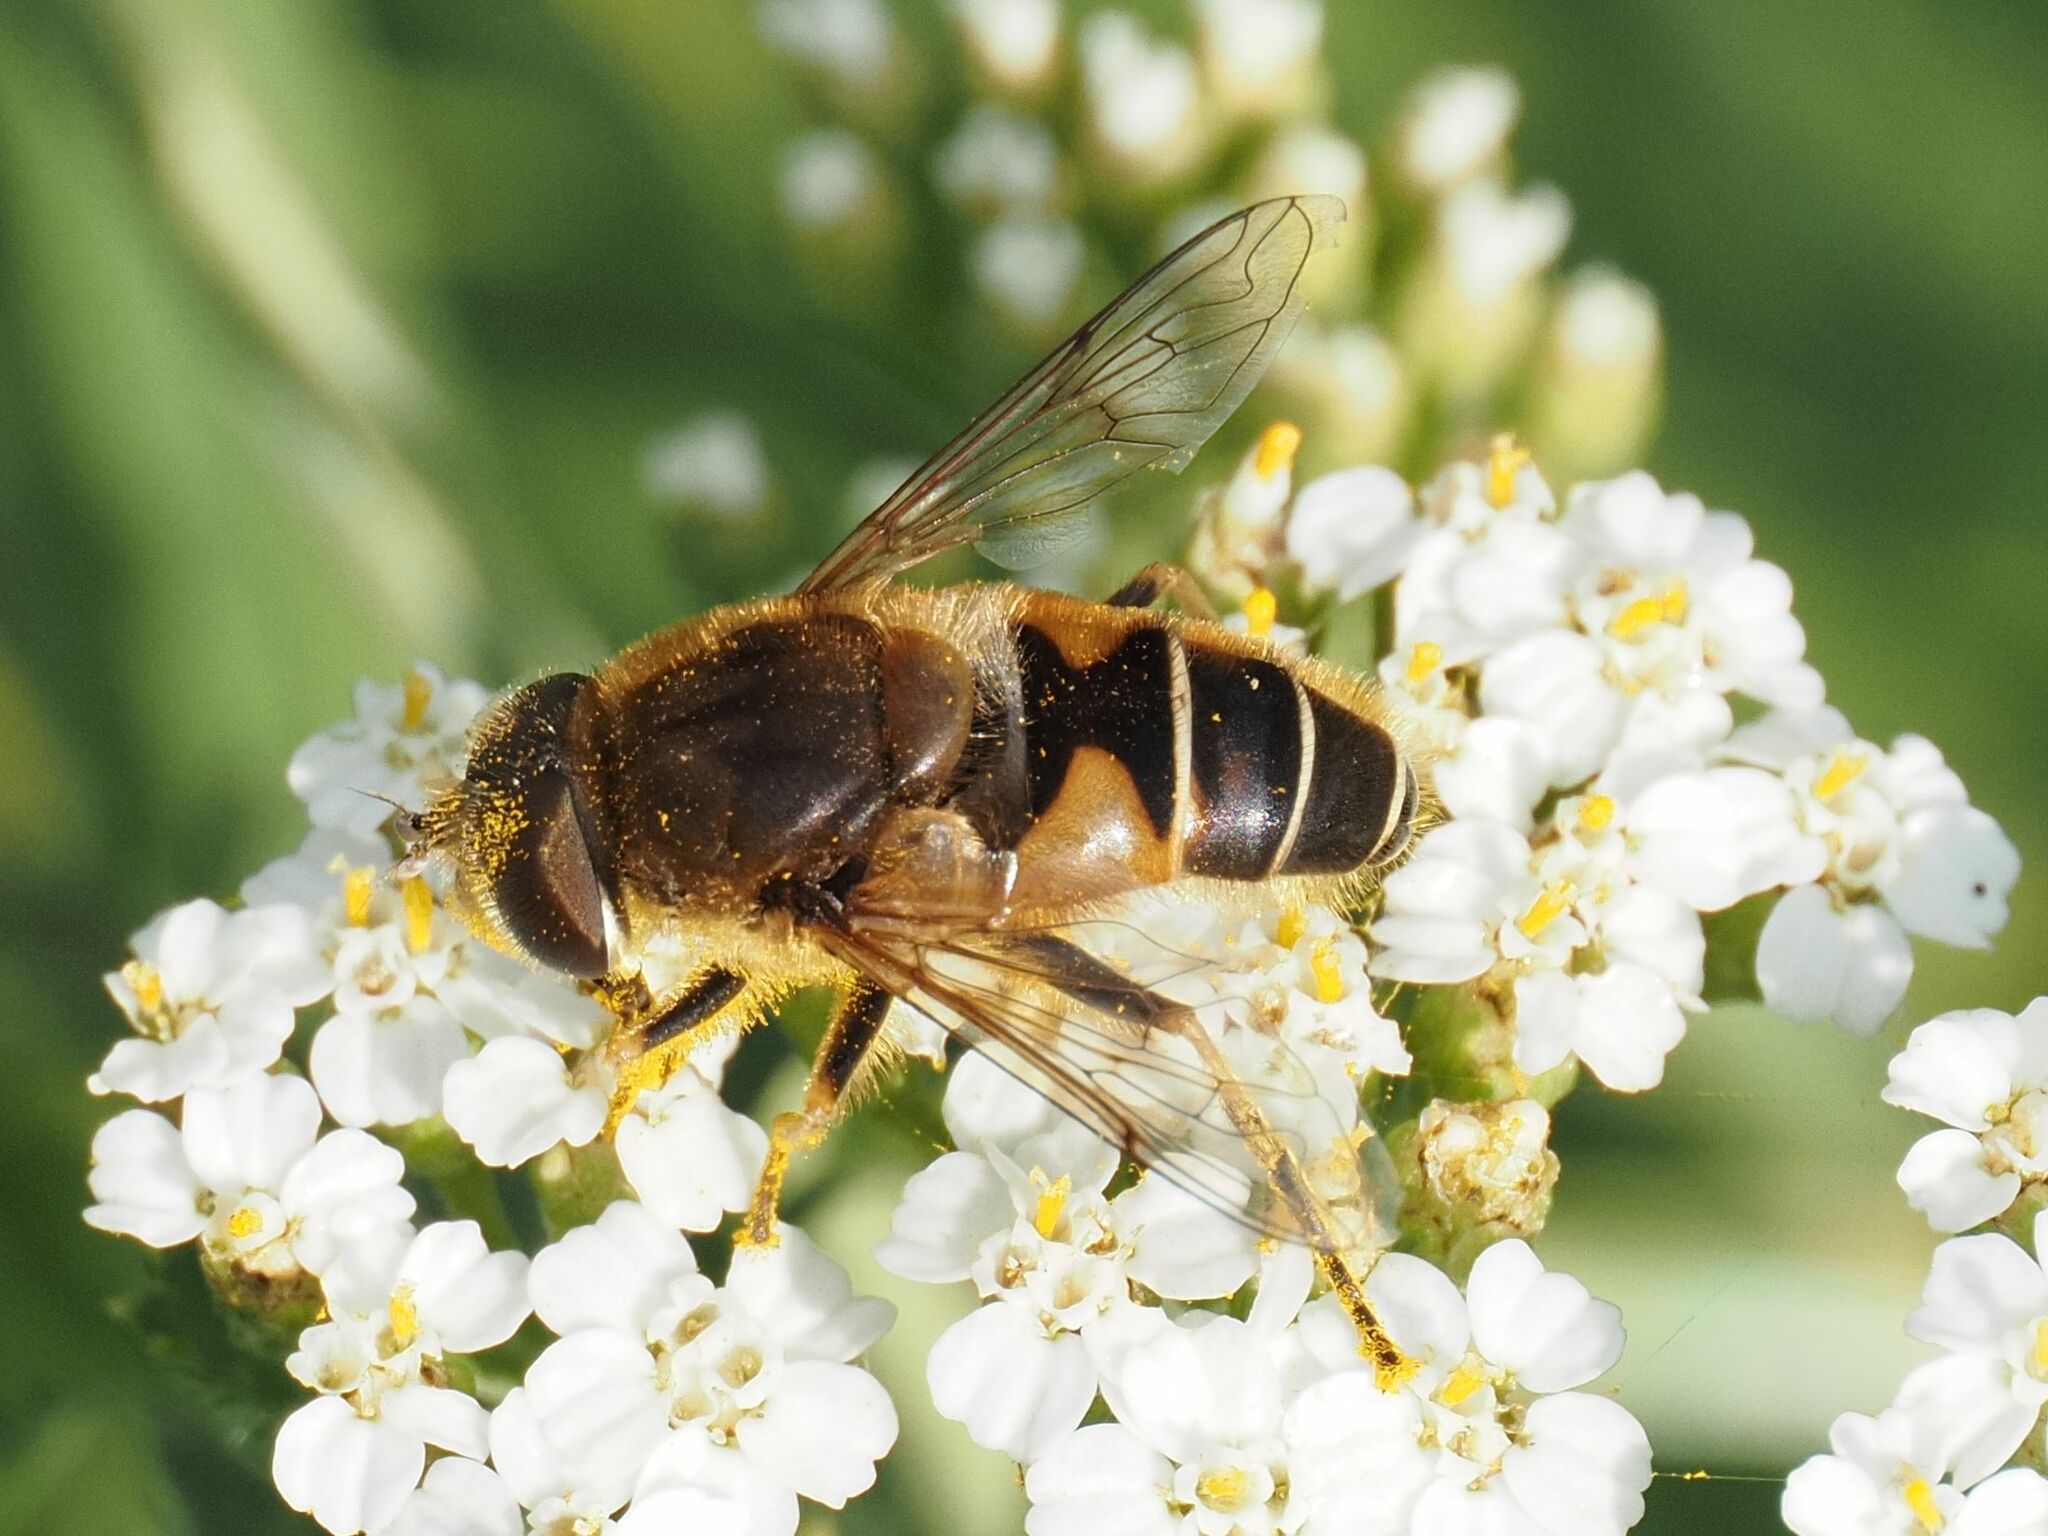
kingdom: Animalia
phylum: Arthropoda
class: Insecta
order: Diptera
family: Syrphidae
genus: Eristalis
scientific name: Eristalis nemorum
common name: Orange-spined drone fly
